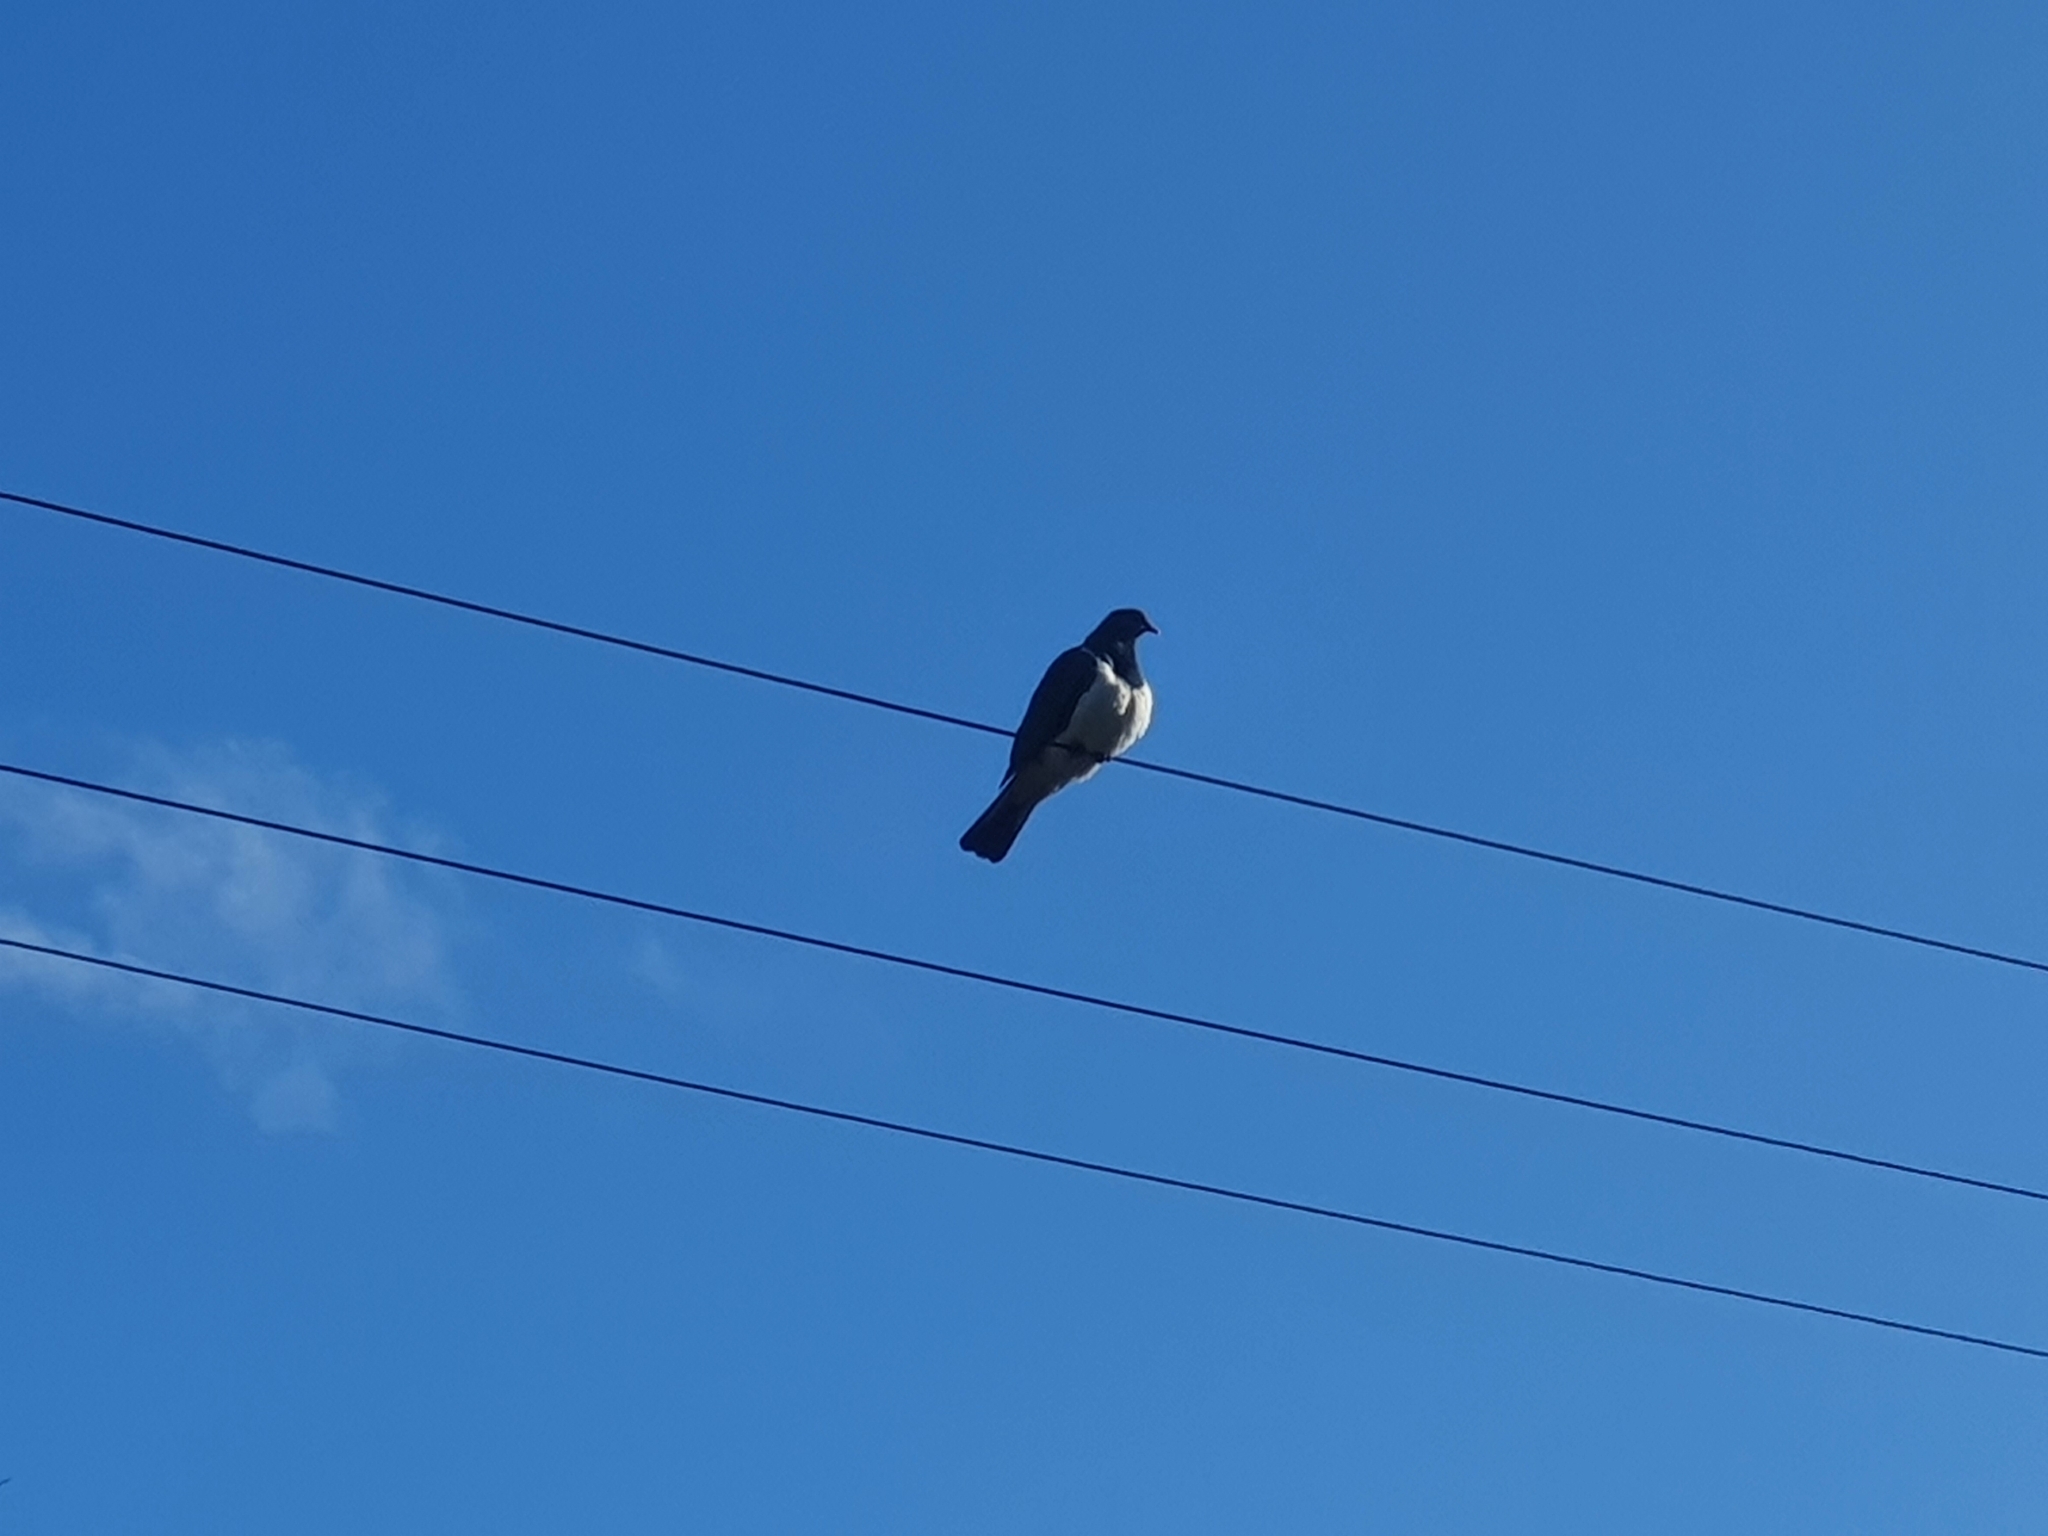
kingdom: Animalia
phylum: Chordata
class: Aves
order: Columbiformes
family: Columbidae
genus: Hemiphaga
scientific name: Hemiphaga novaeseelandiae
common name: New zealand pigeon
